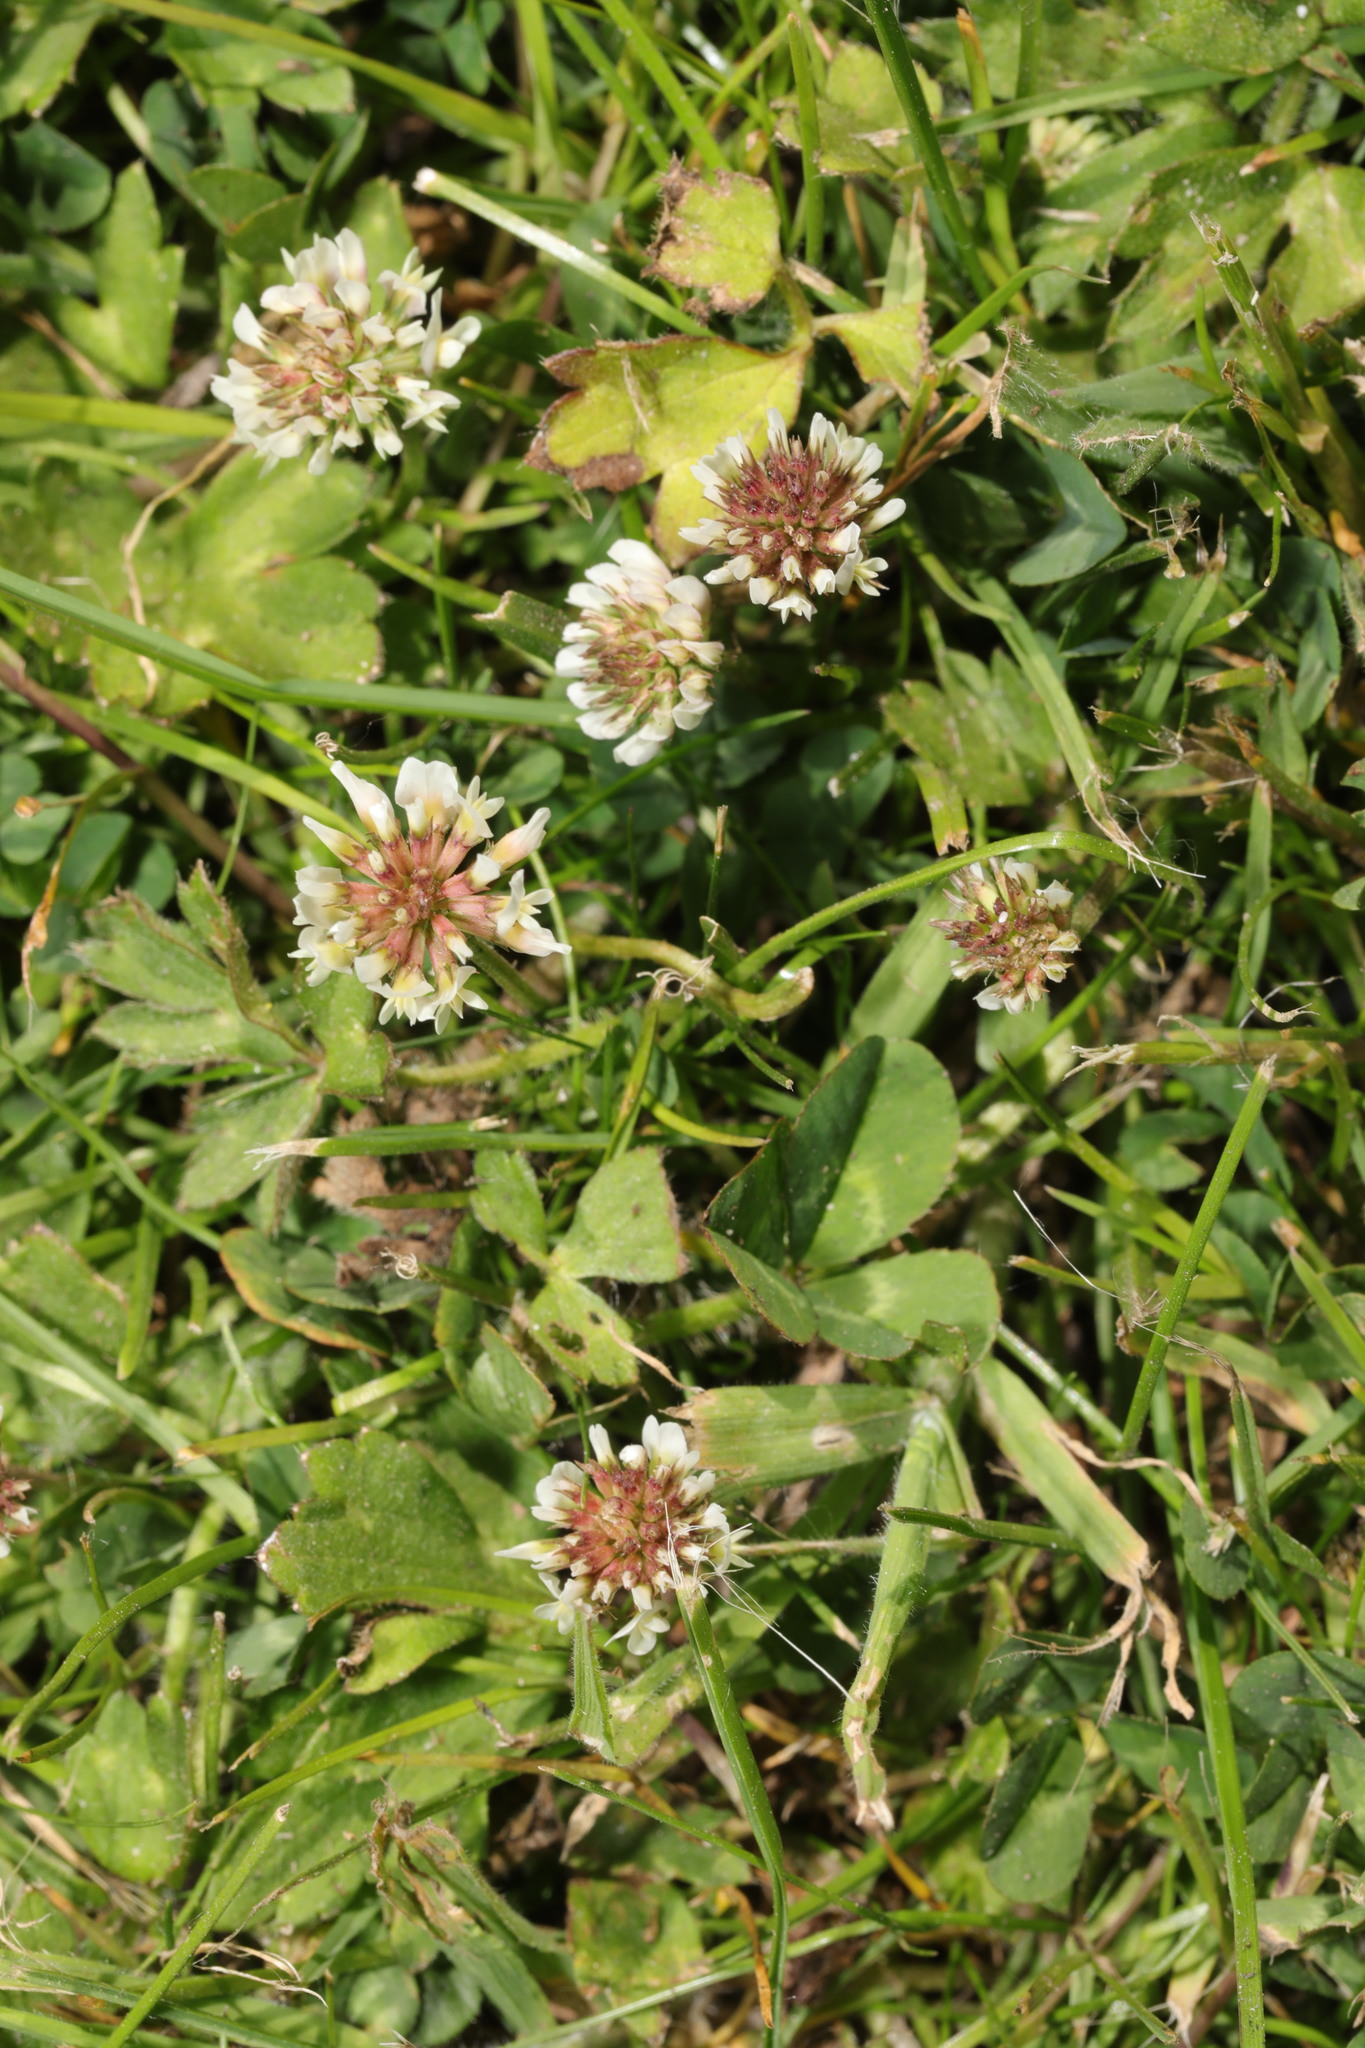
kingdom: Plantae
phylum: Tracheophyta
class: Magnoliopsida
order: Fabales
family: Fabaceae
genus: Trifolium
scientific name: Trifolium repens
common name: White clover
